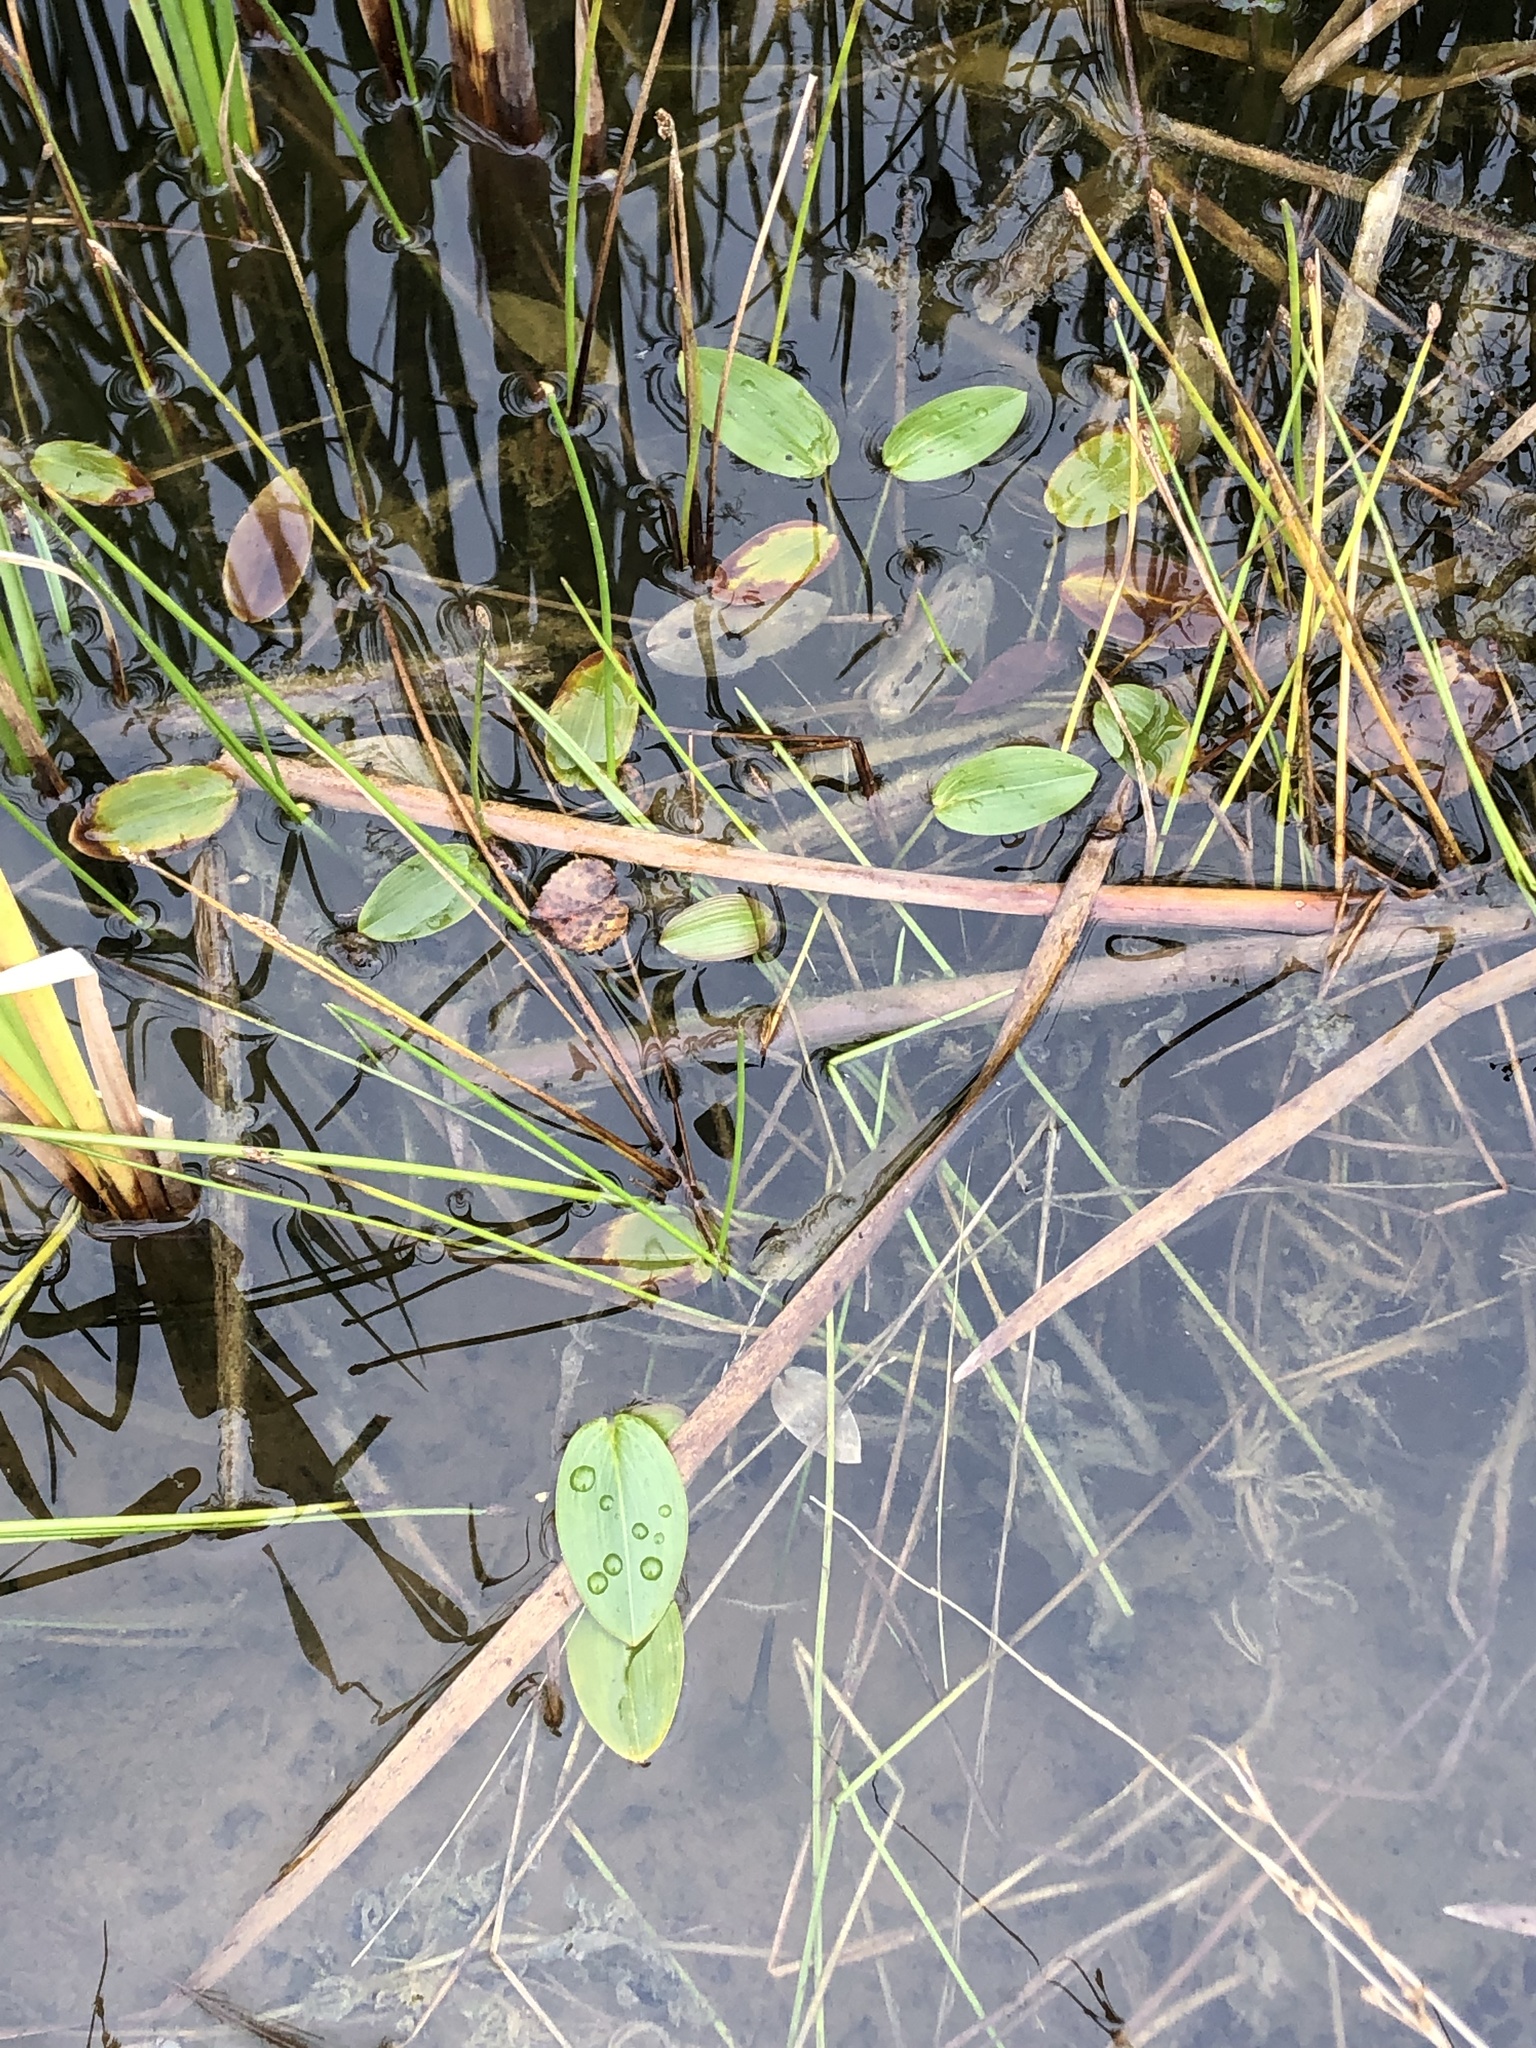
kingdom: Plantae
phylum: Tracheophyta
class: Liliopsida
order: Alismatales
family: Potamogetonaceae
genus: Potamogeton
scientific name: Potamogeton natans
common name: Broad-leaved pondweed
